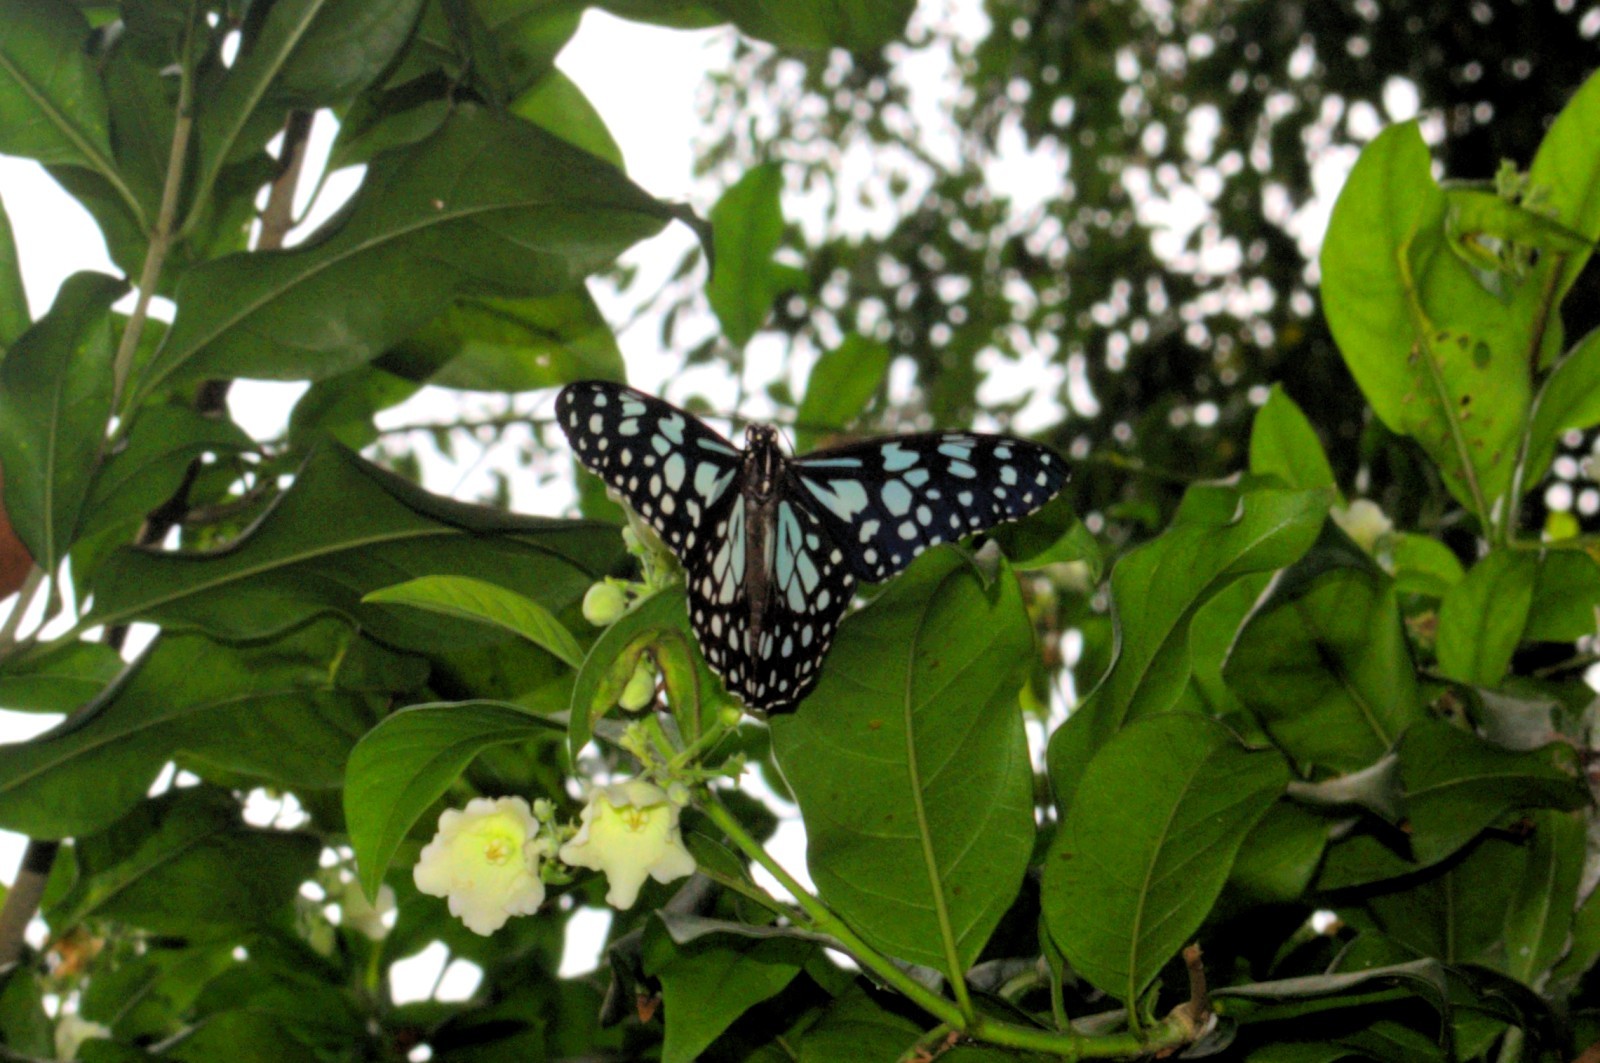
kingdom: Animalia
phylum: Arthropoda
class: Insecta
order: Lepidoptera
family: Nymphalidae
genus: Tirumala
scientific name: Tirumala limniace
